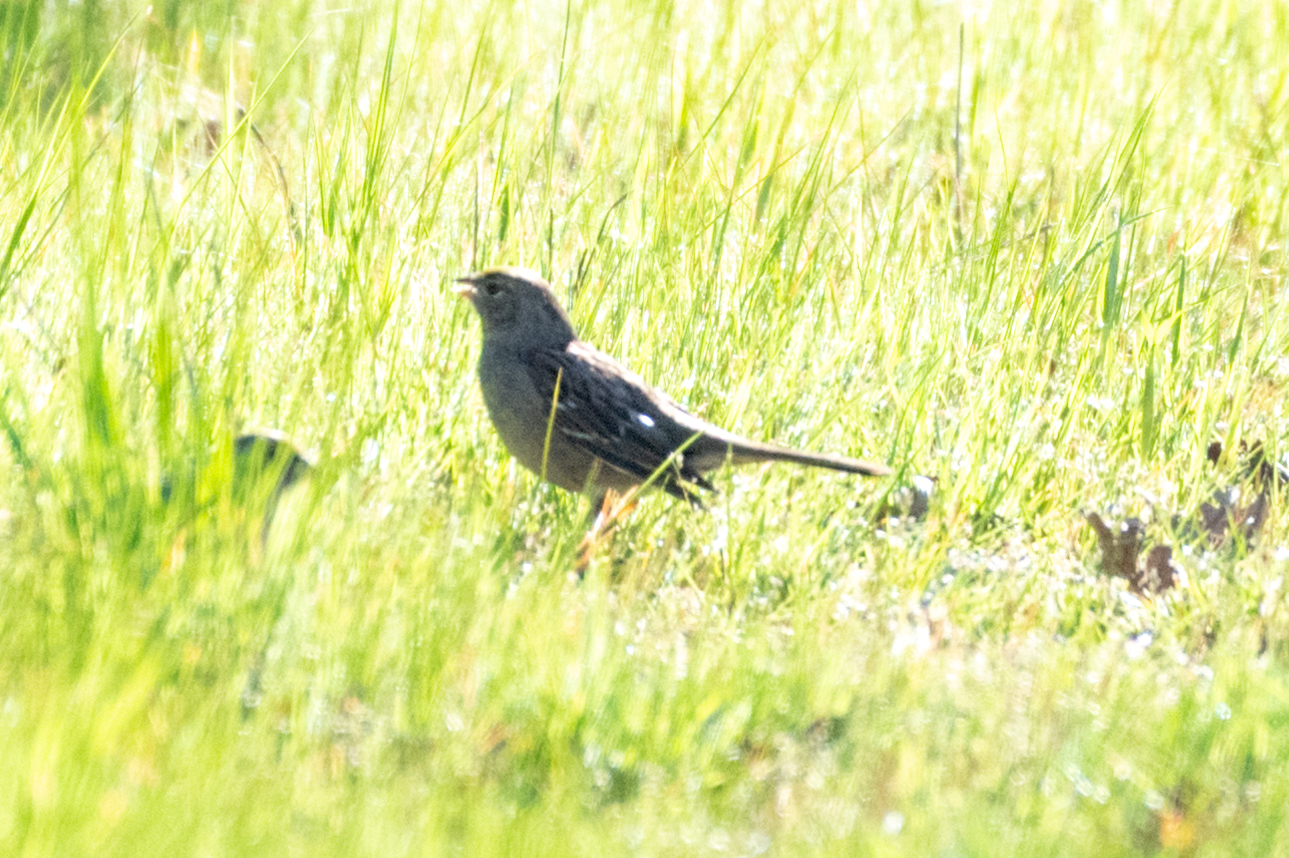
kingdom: Animalia
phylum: Chordata
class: Aves
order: Passeriformes
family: Passerellidae
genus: Zonotrichia
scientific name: Zonotrichia atricapilla
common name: Golden-crowned sparrow
